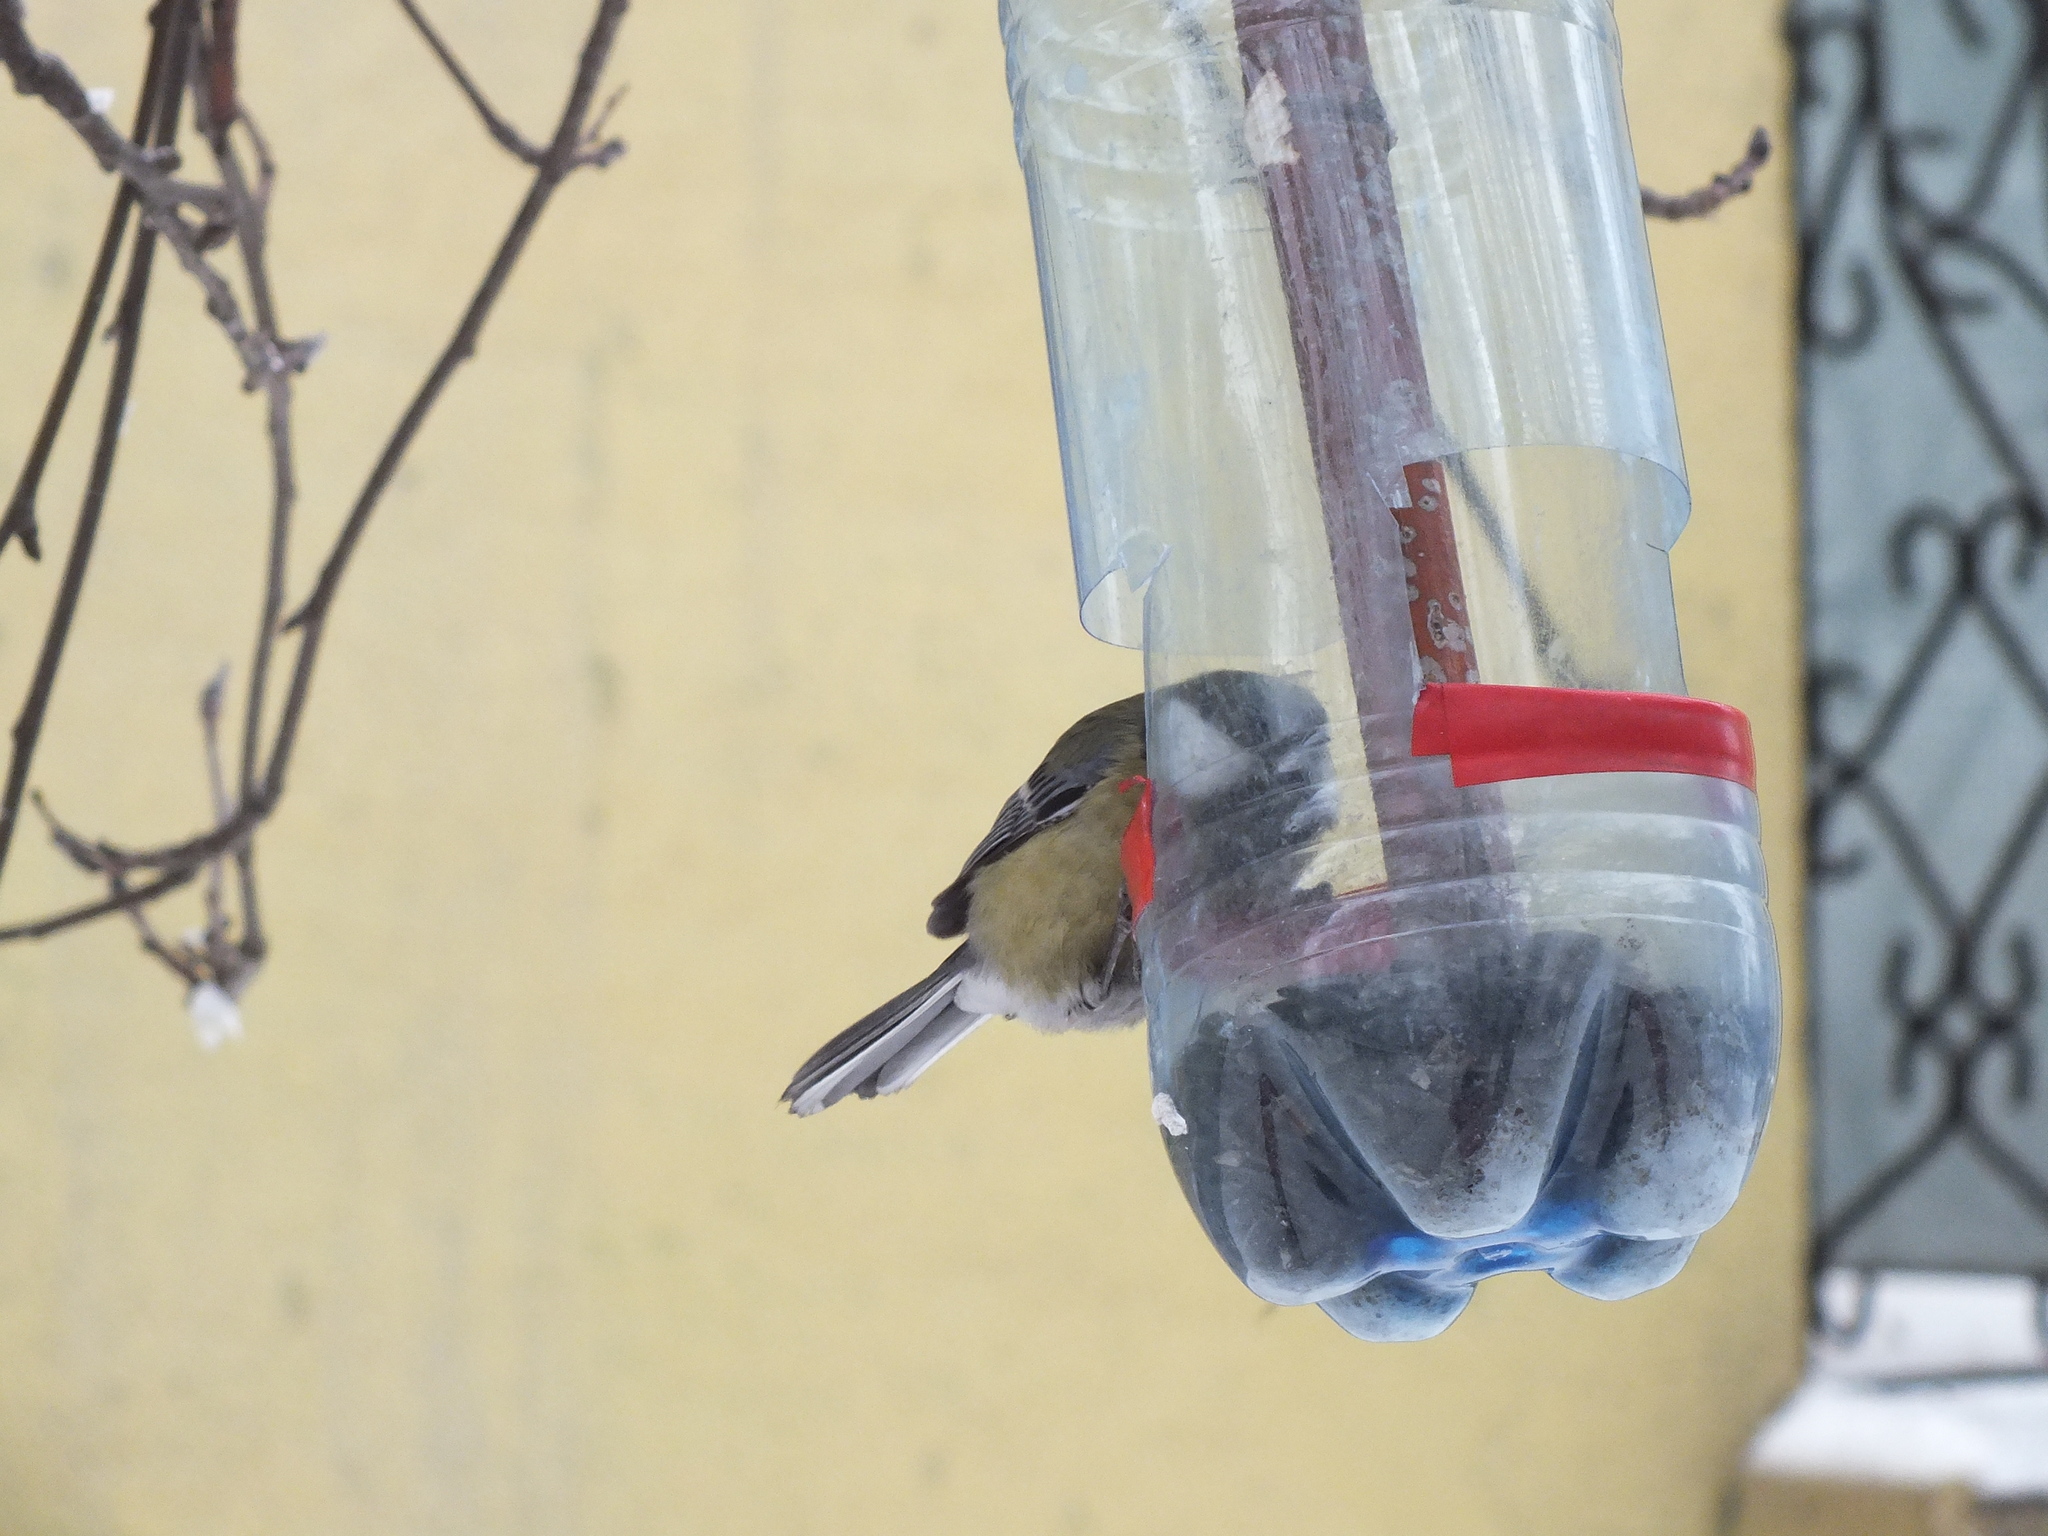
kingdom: Animalia
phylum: Chordata
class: Aves
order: Passeriformes
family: Paridae
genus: Parus
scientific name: Parus major
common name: Great tit
